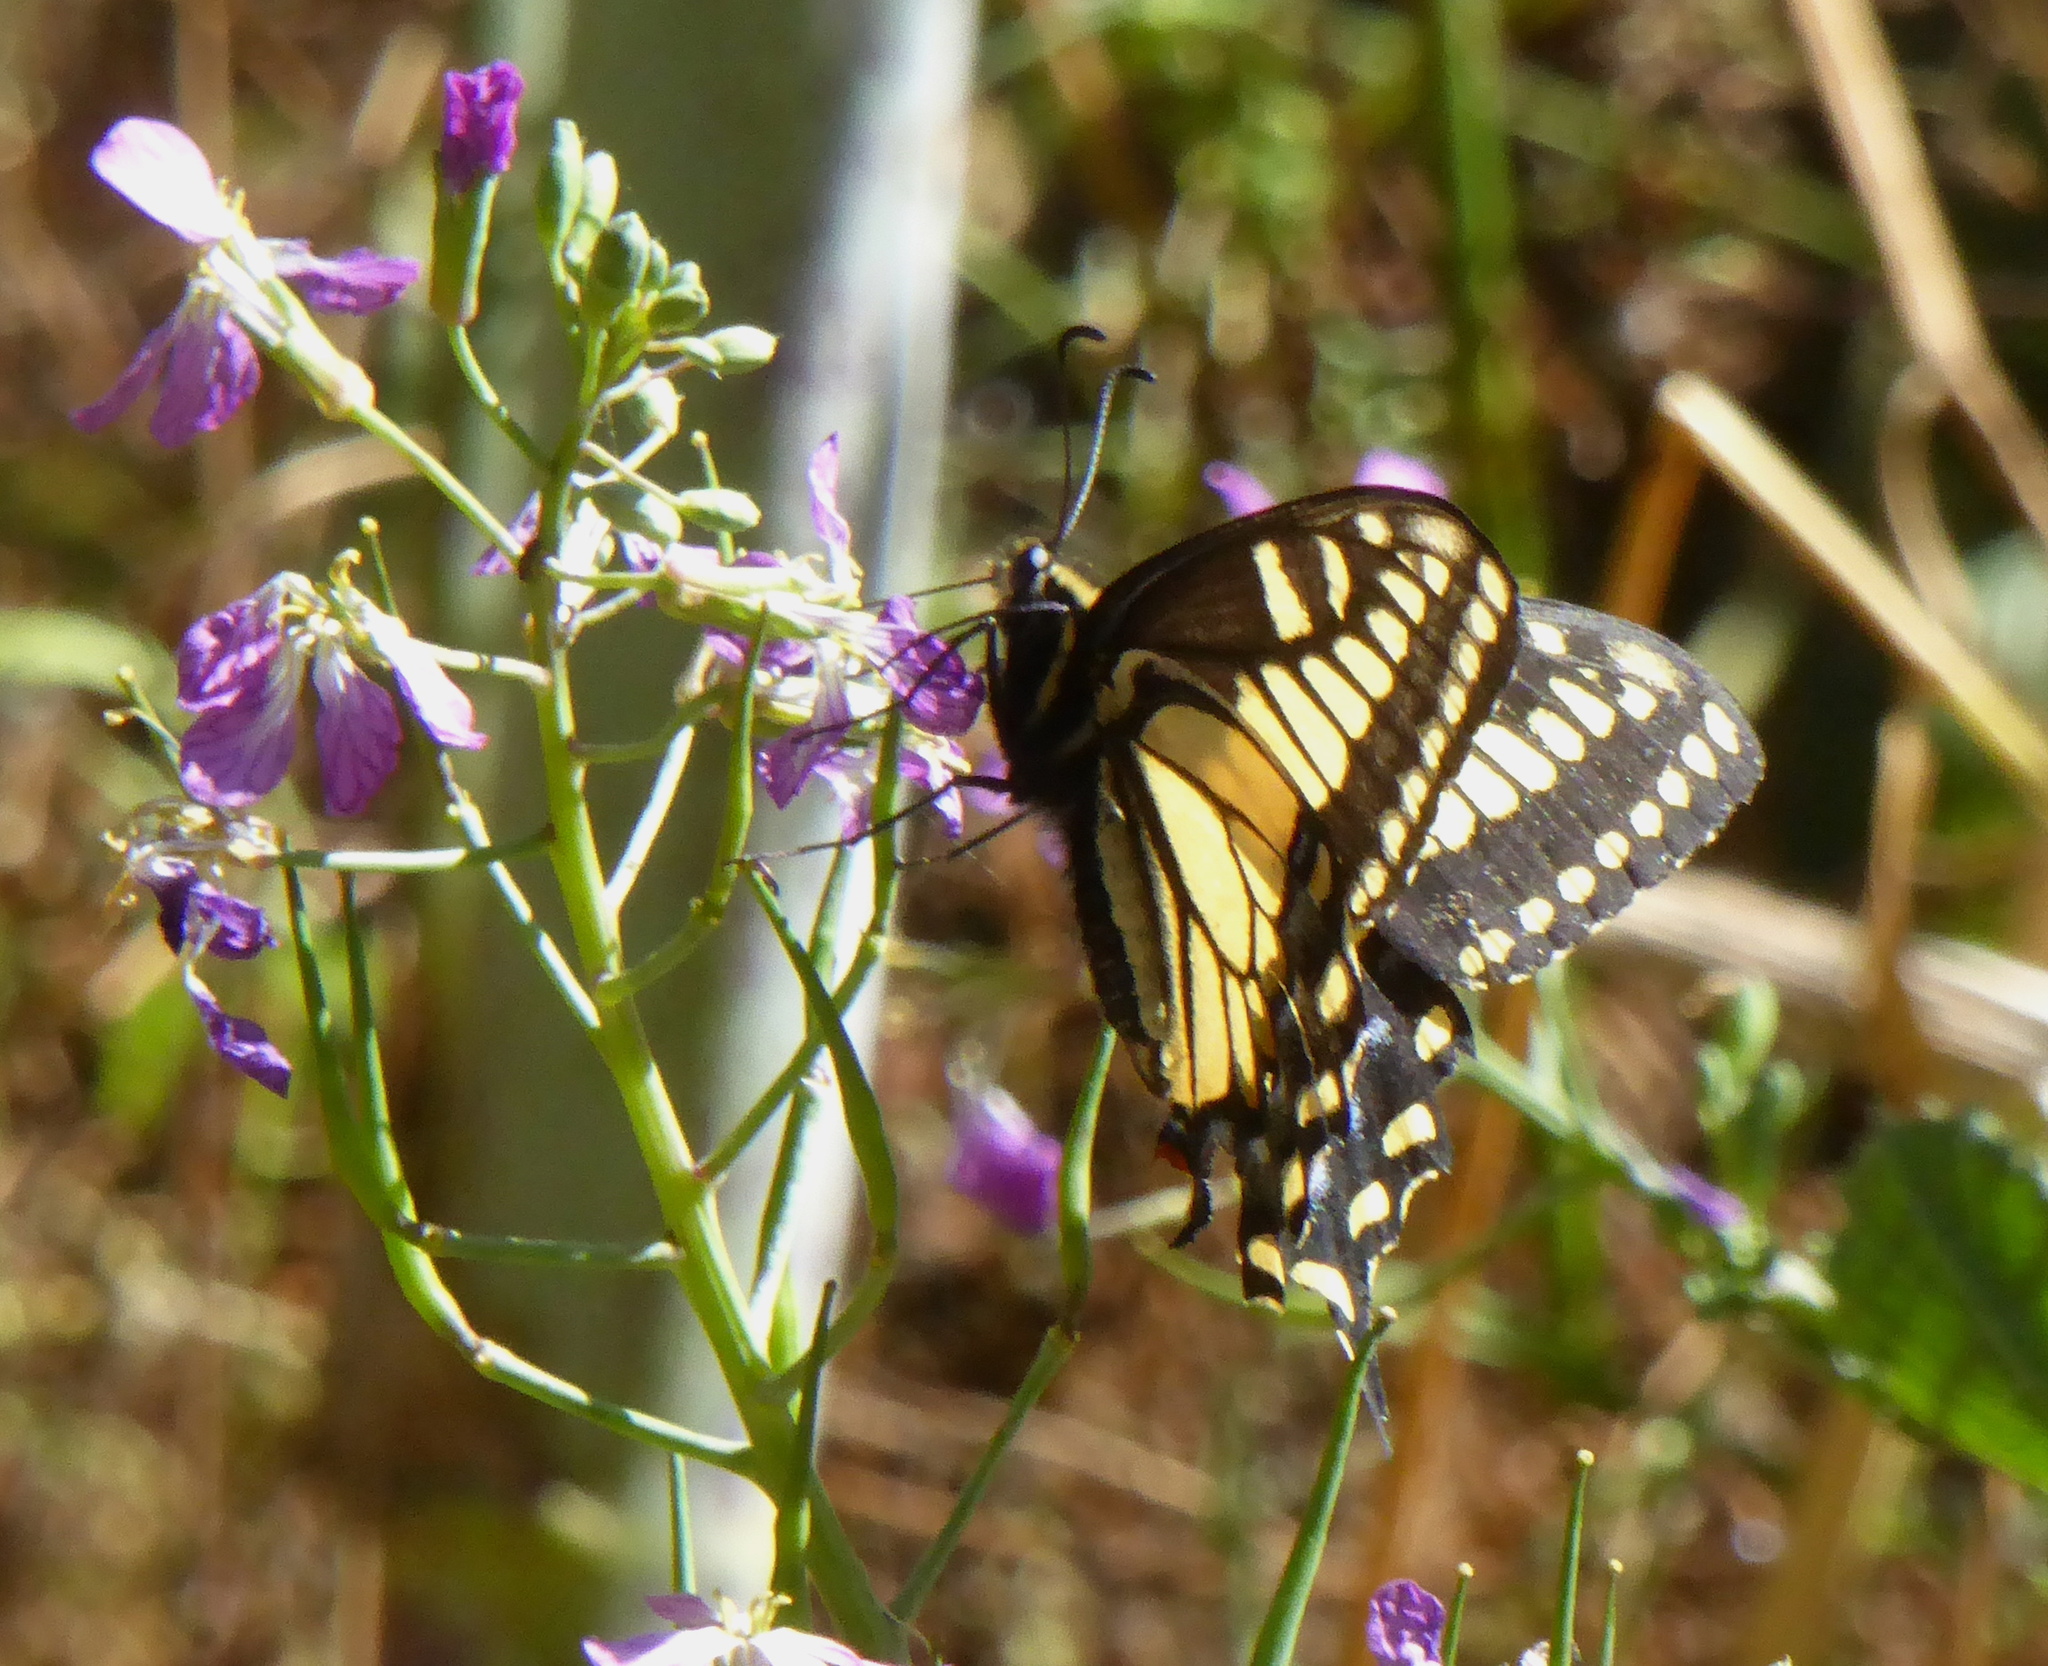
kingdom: Animalia
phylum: Arthropoda
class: Insecta
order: Lepidoptera
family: Papilionidae
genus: Papilio
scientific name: Papilio zelicaon
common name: Anise swallowtail
